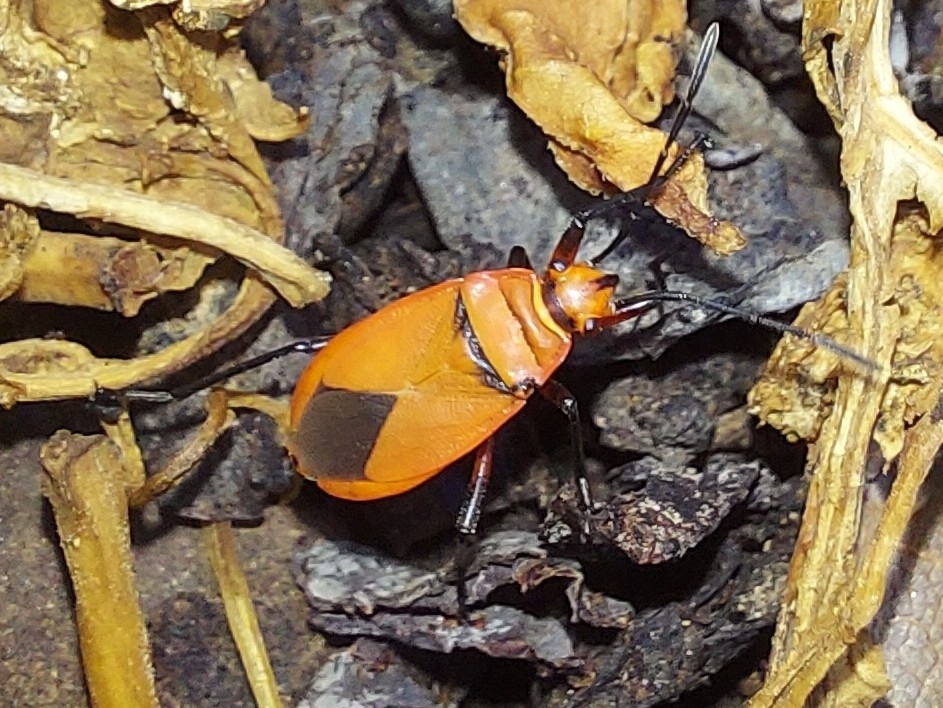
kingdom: Animalia
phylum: Arthropoda
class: Insecta
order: Hemiptera
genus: Cenaeus
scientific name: Cenaeus
